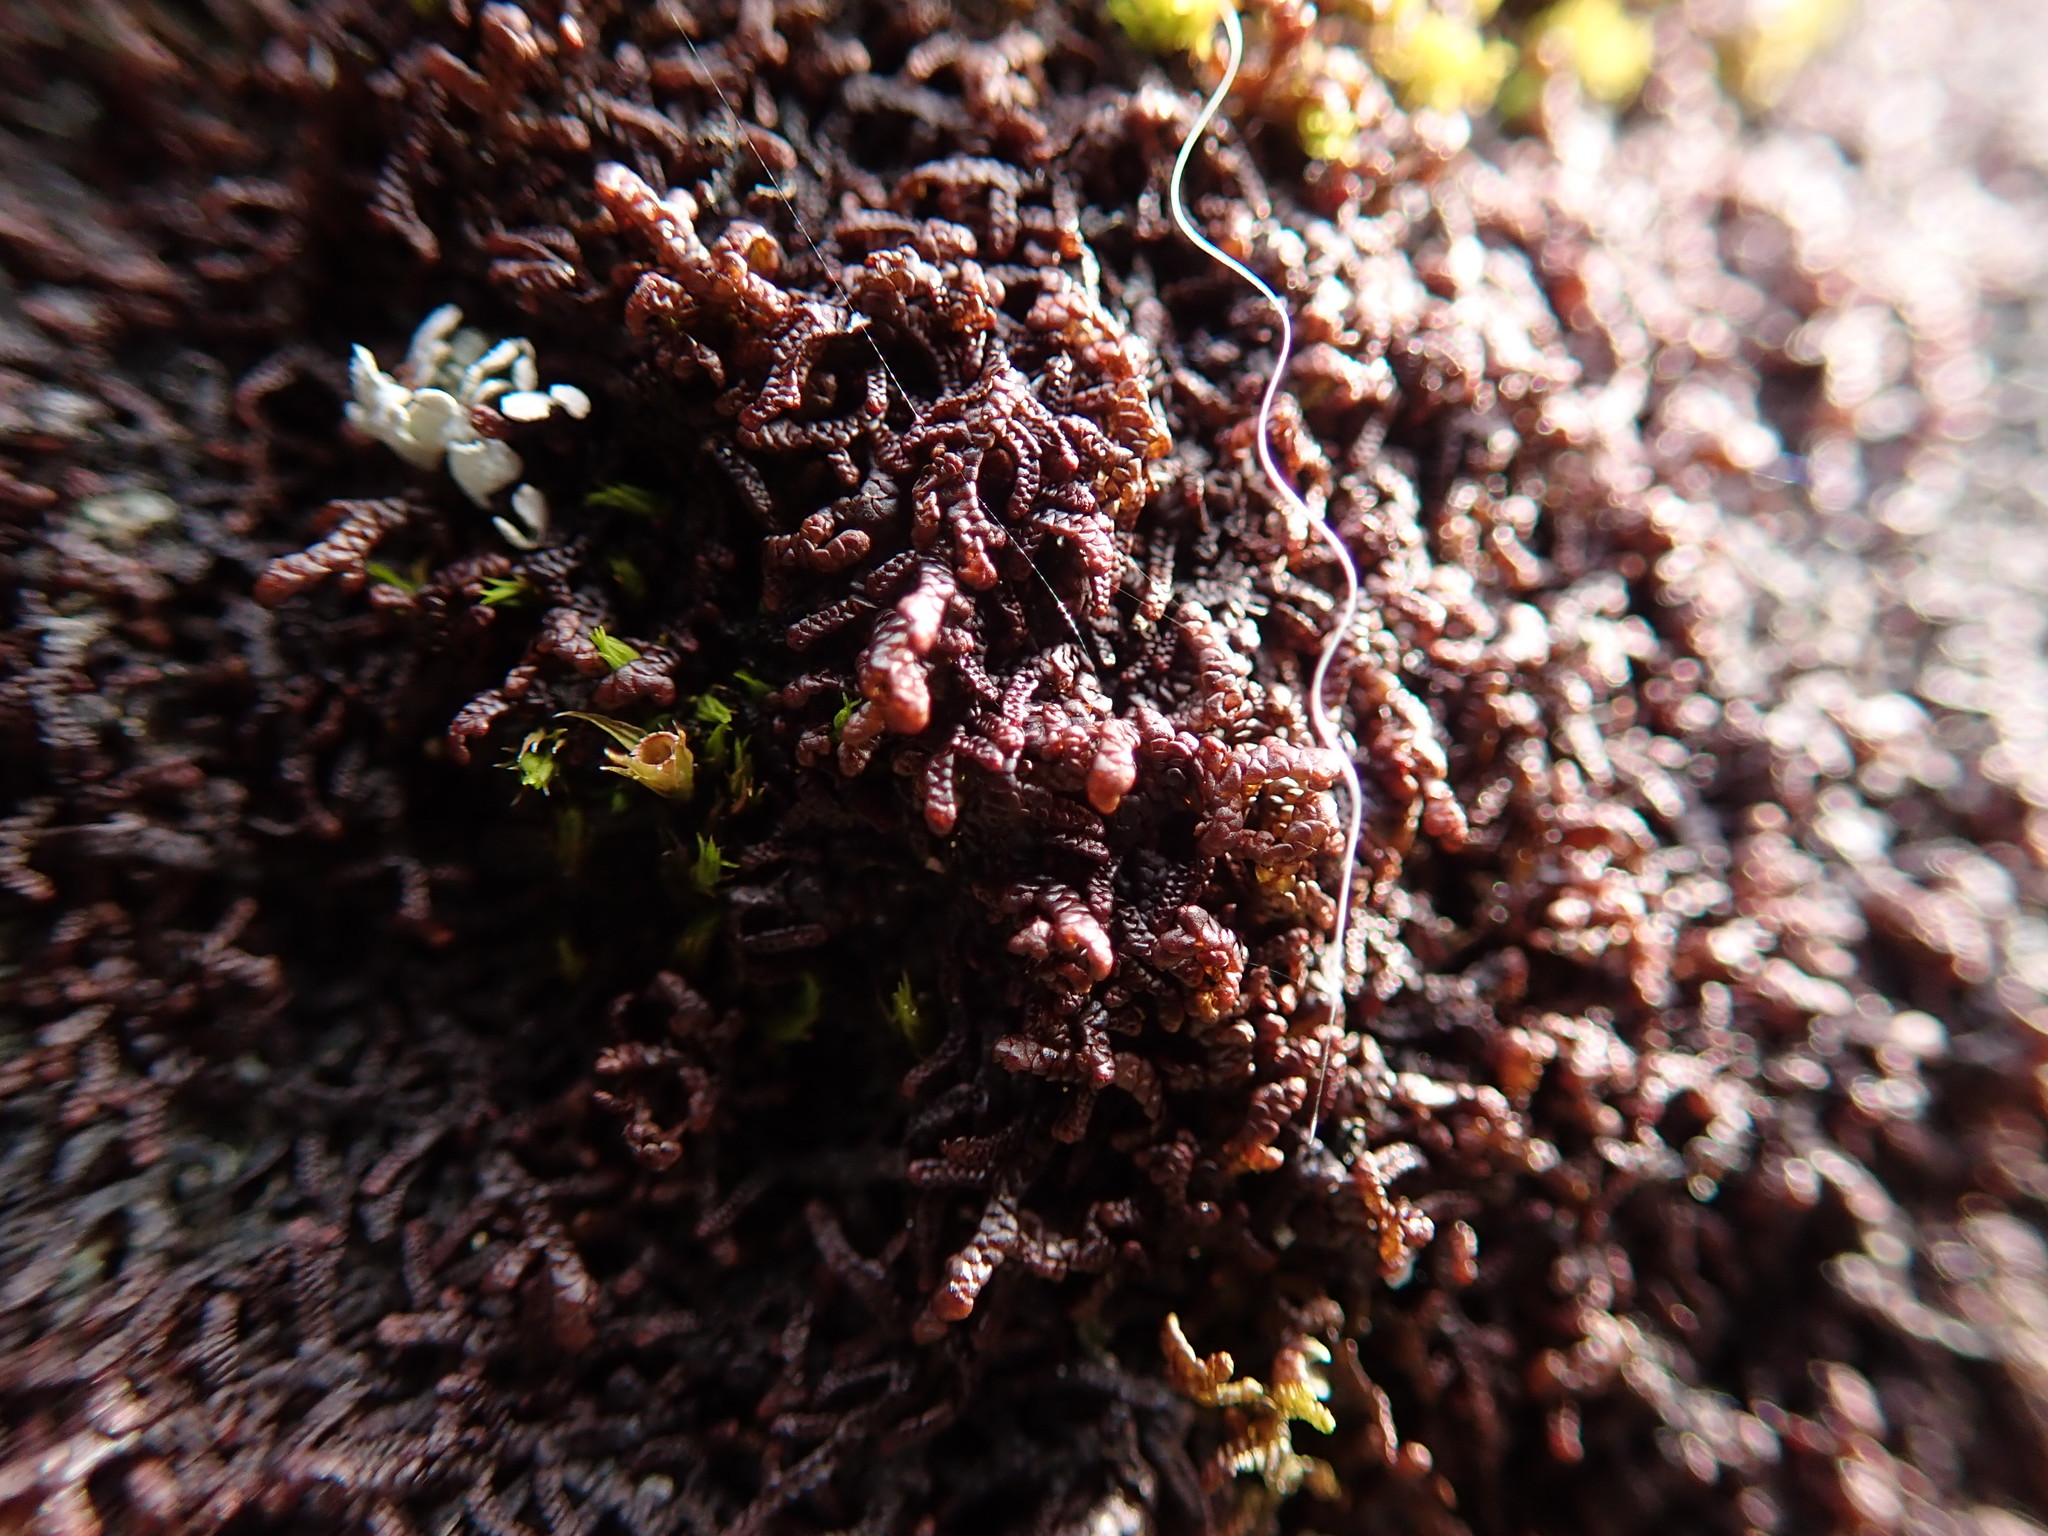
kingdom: Plantae
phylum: Marchantiophyta
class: Jungermanniopsida
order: Porellales
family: Frullaniaceae
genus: Frullania
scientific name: Frullania californica
